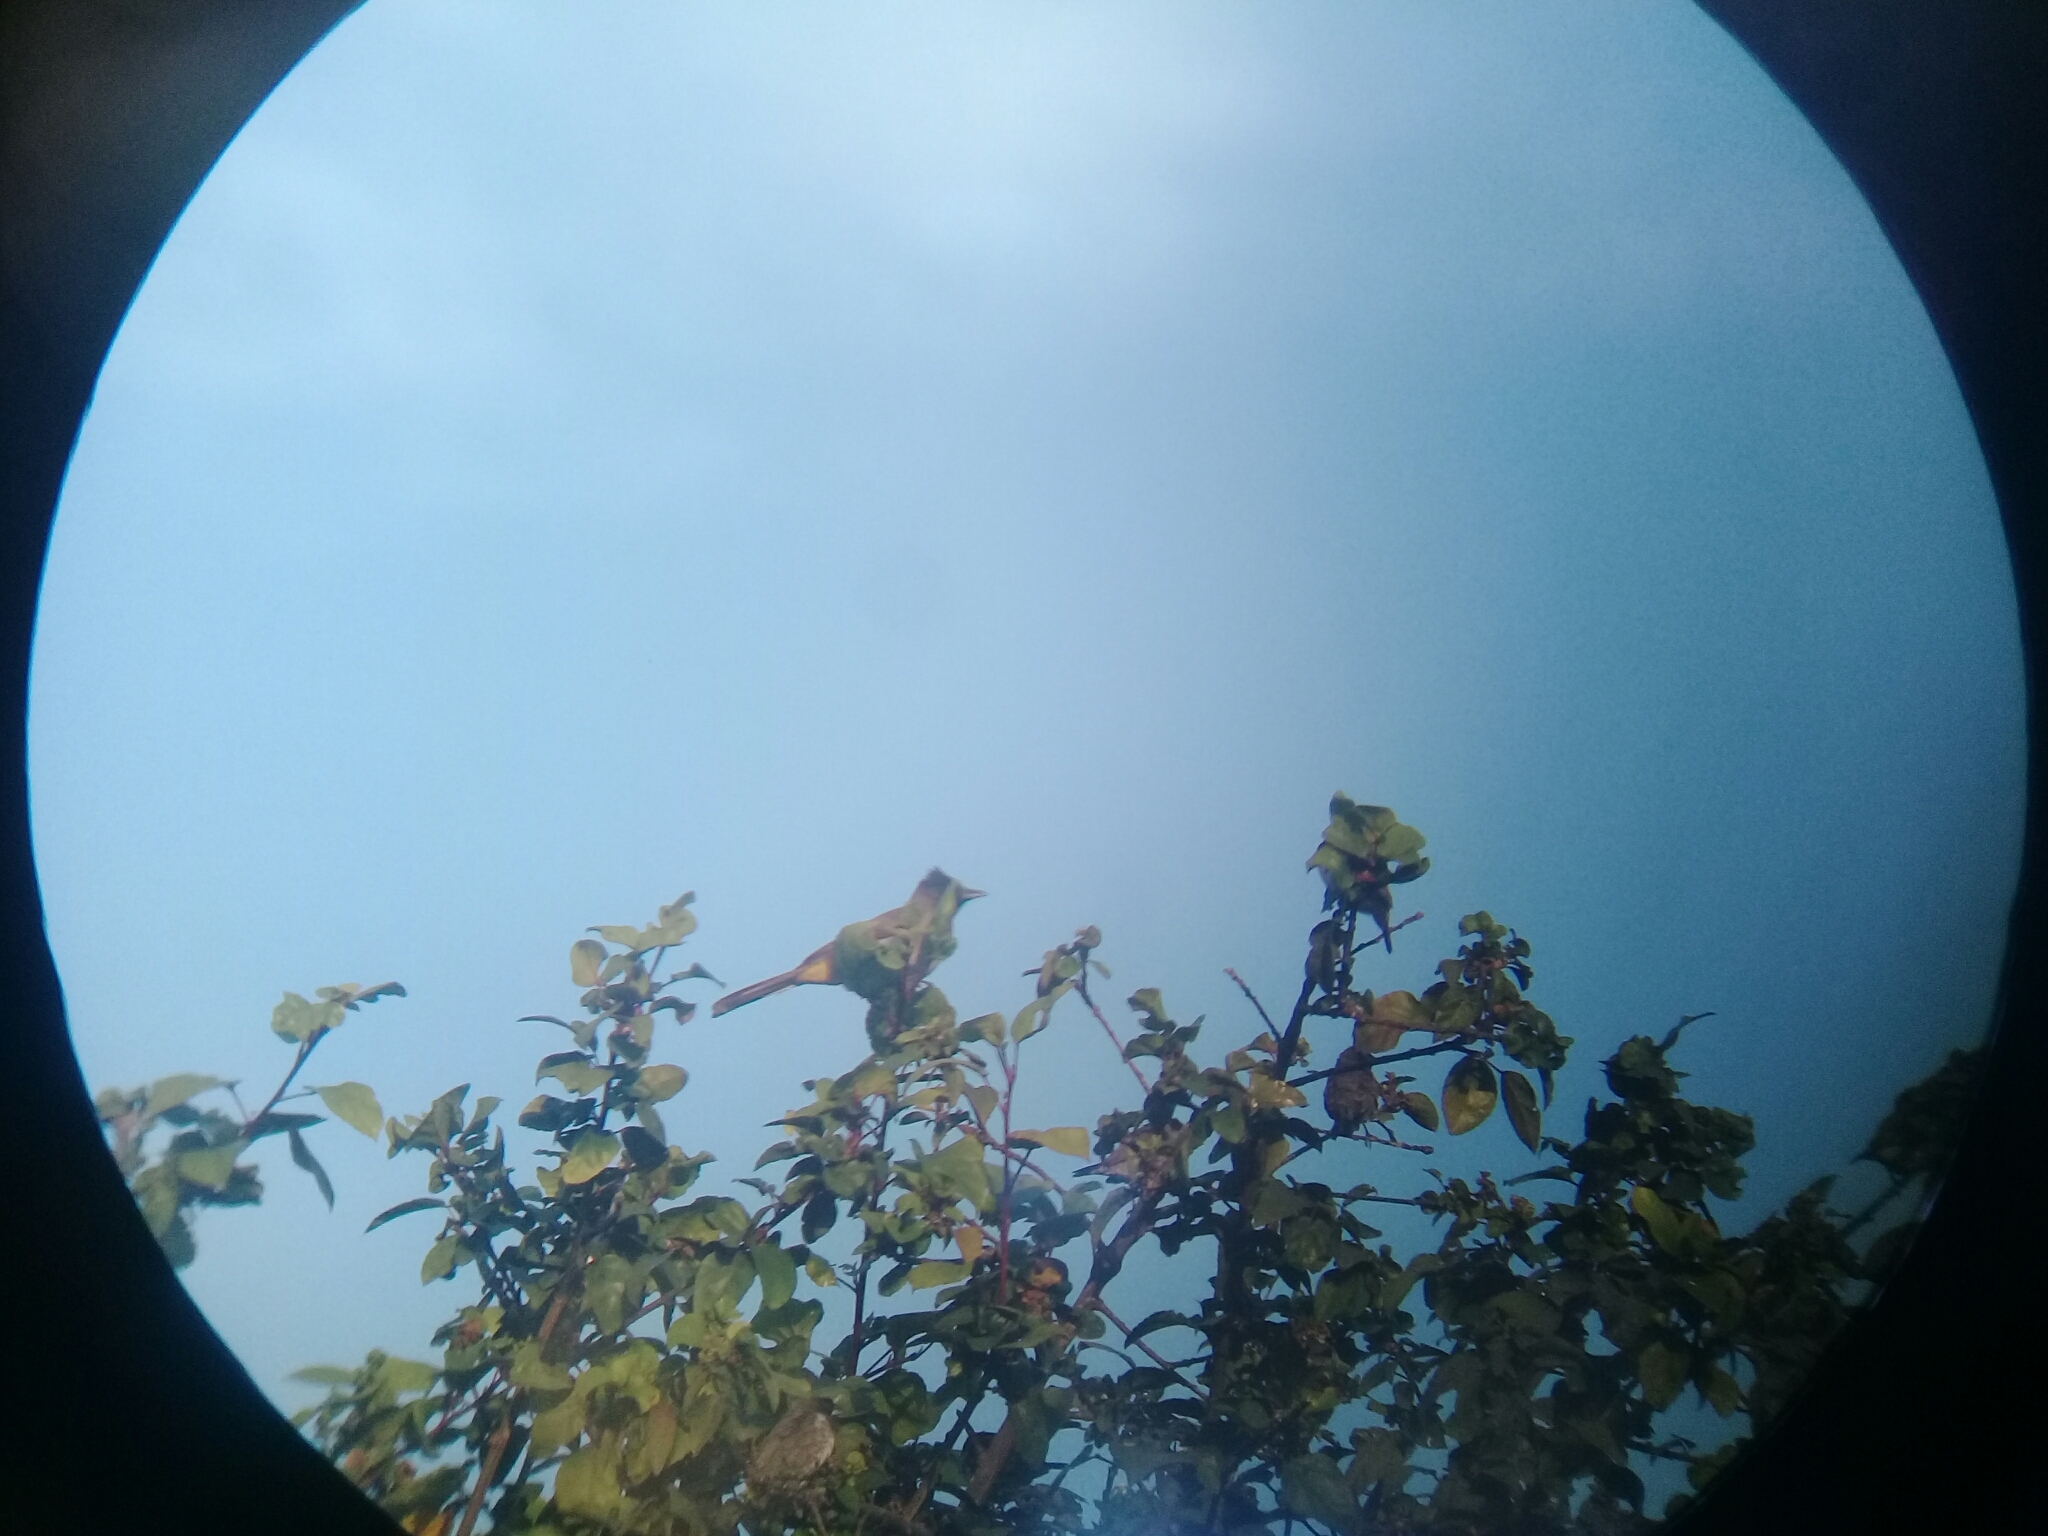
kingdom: Animalia
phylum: Chordata
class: Aves
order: Passeriformes
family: Pycnonotidae
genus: Pycnonotus
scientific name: Pycnonotus barbatus
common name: Common bulbul
